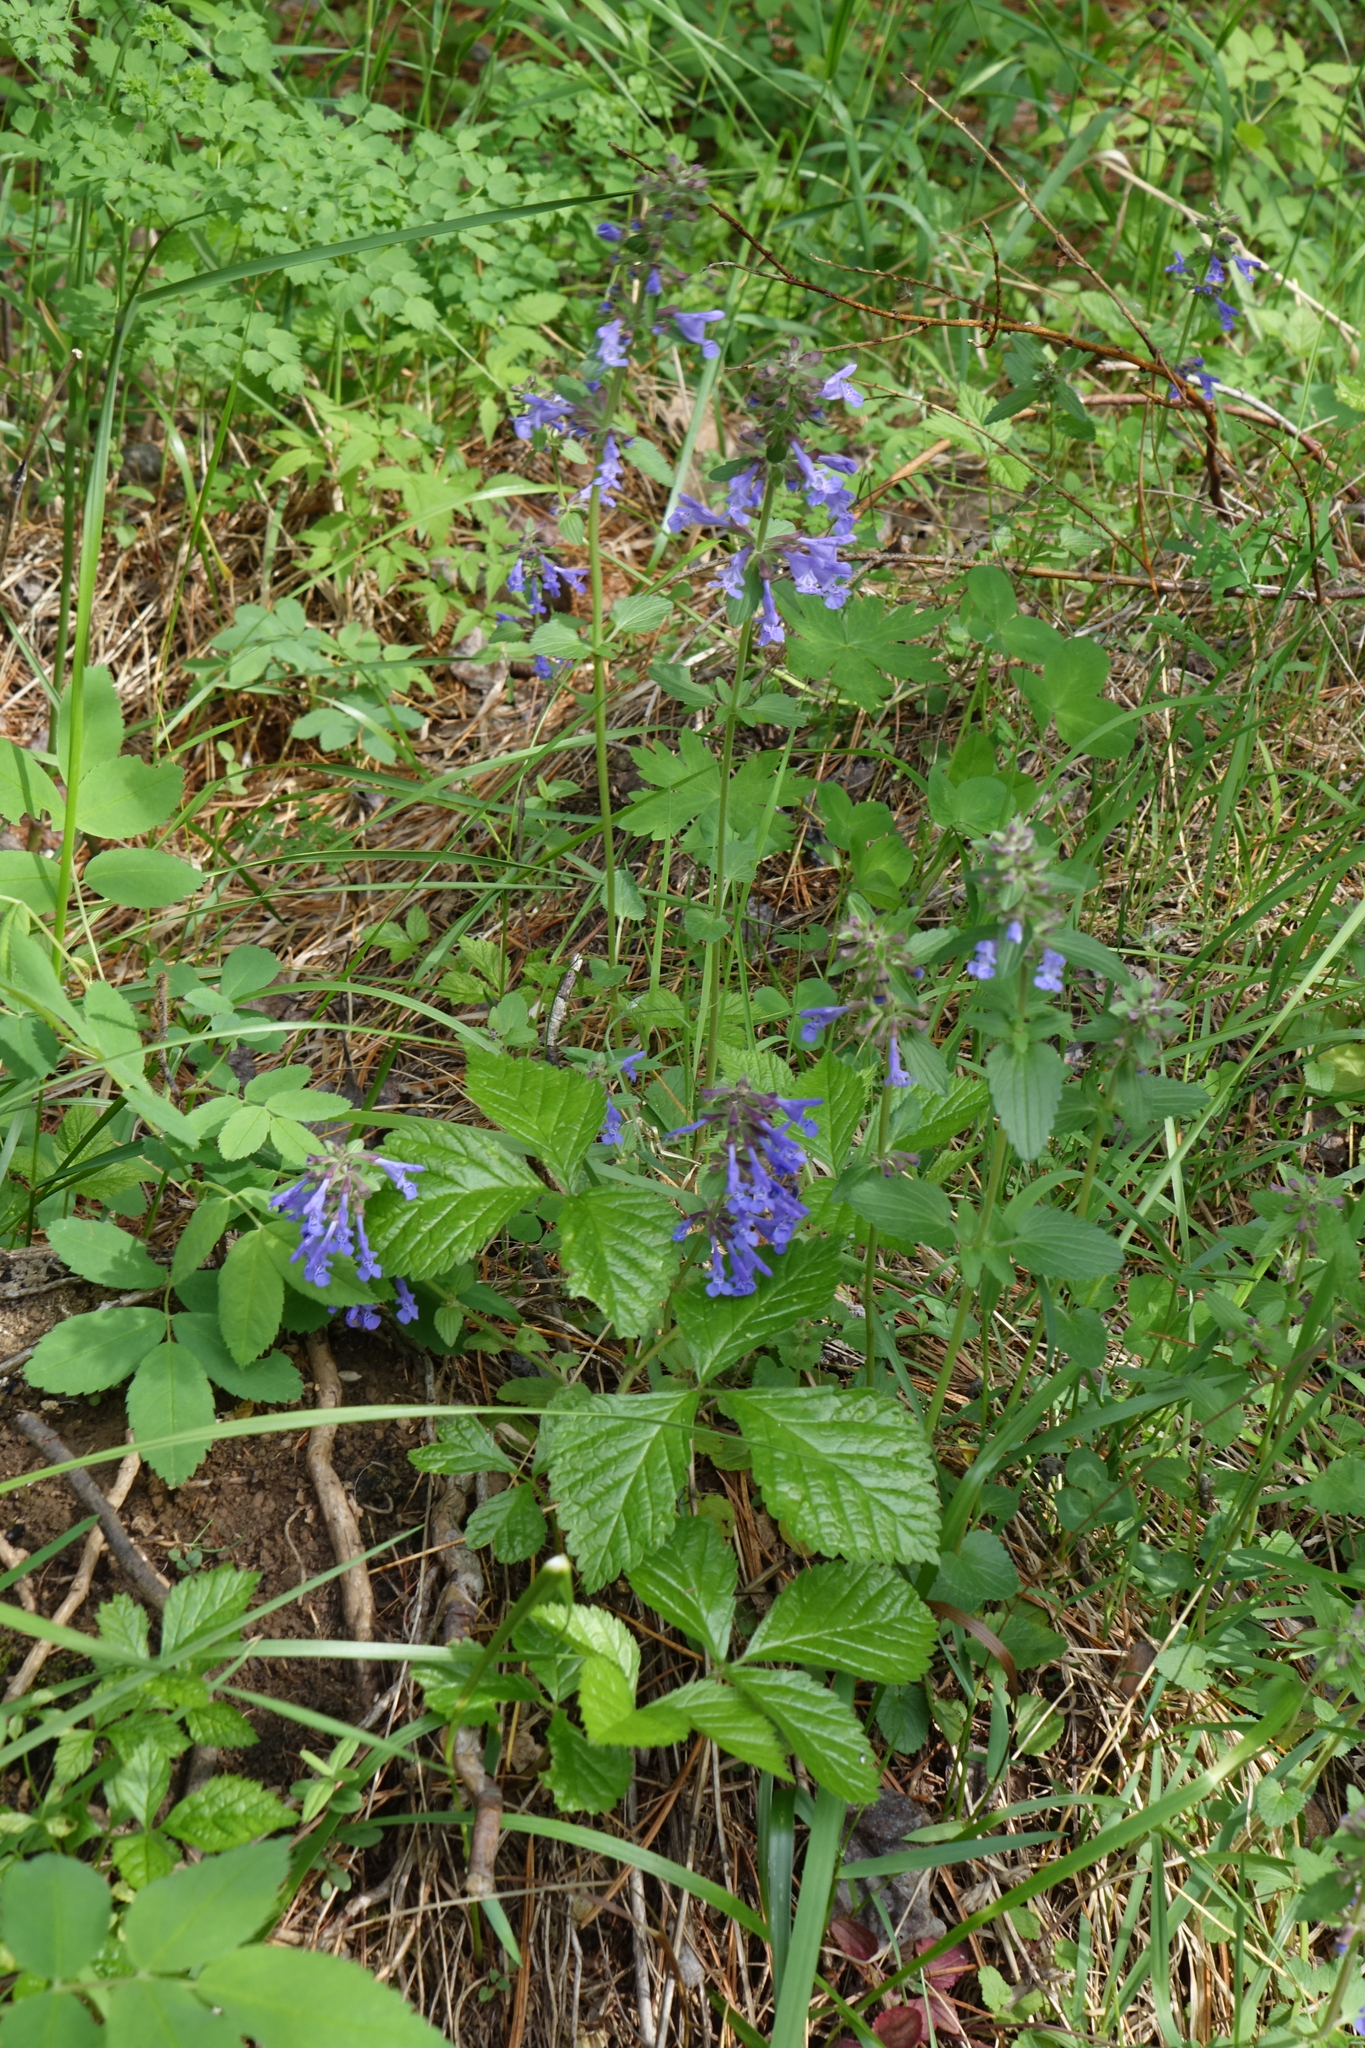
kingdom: Plantae
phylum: Tracheophyta
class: Magnoliopsida
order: Lamiales
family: Lamiaceae
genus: Dracocephalum
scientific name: Dracocephalum nutans
